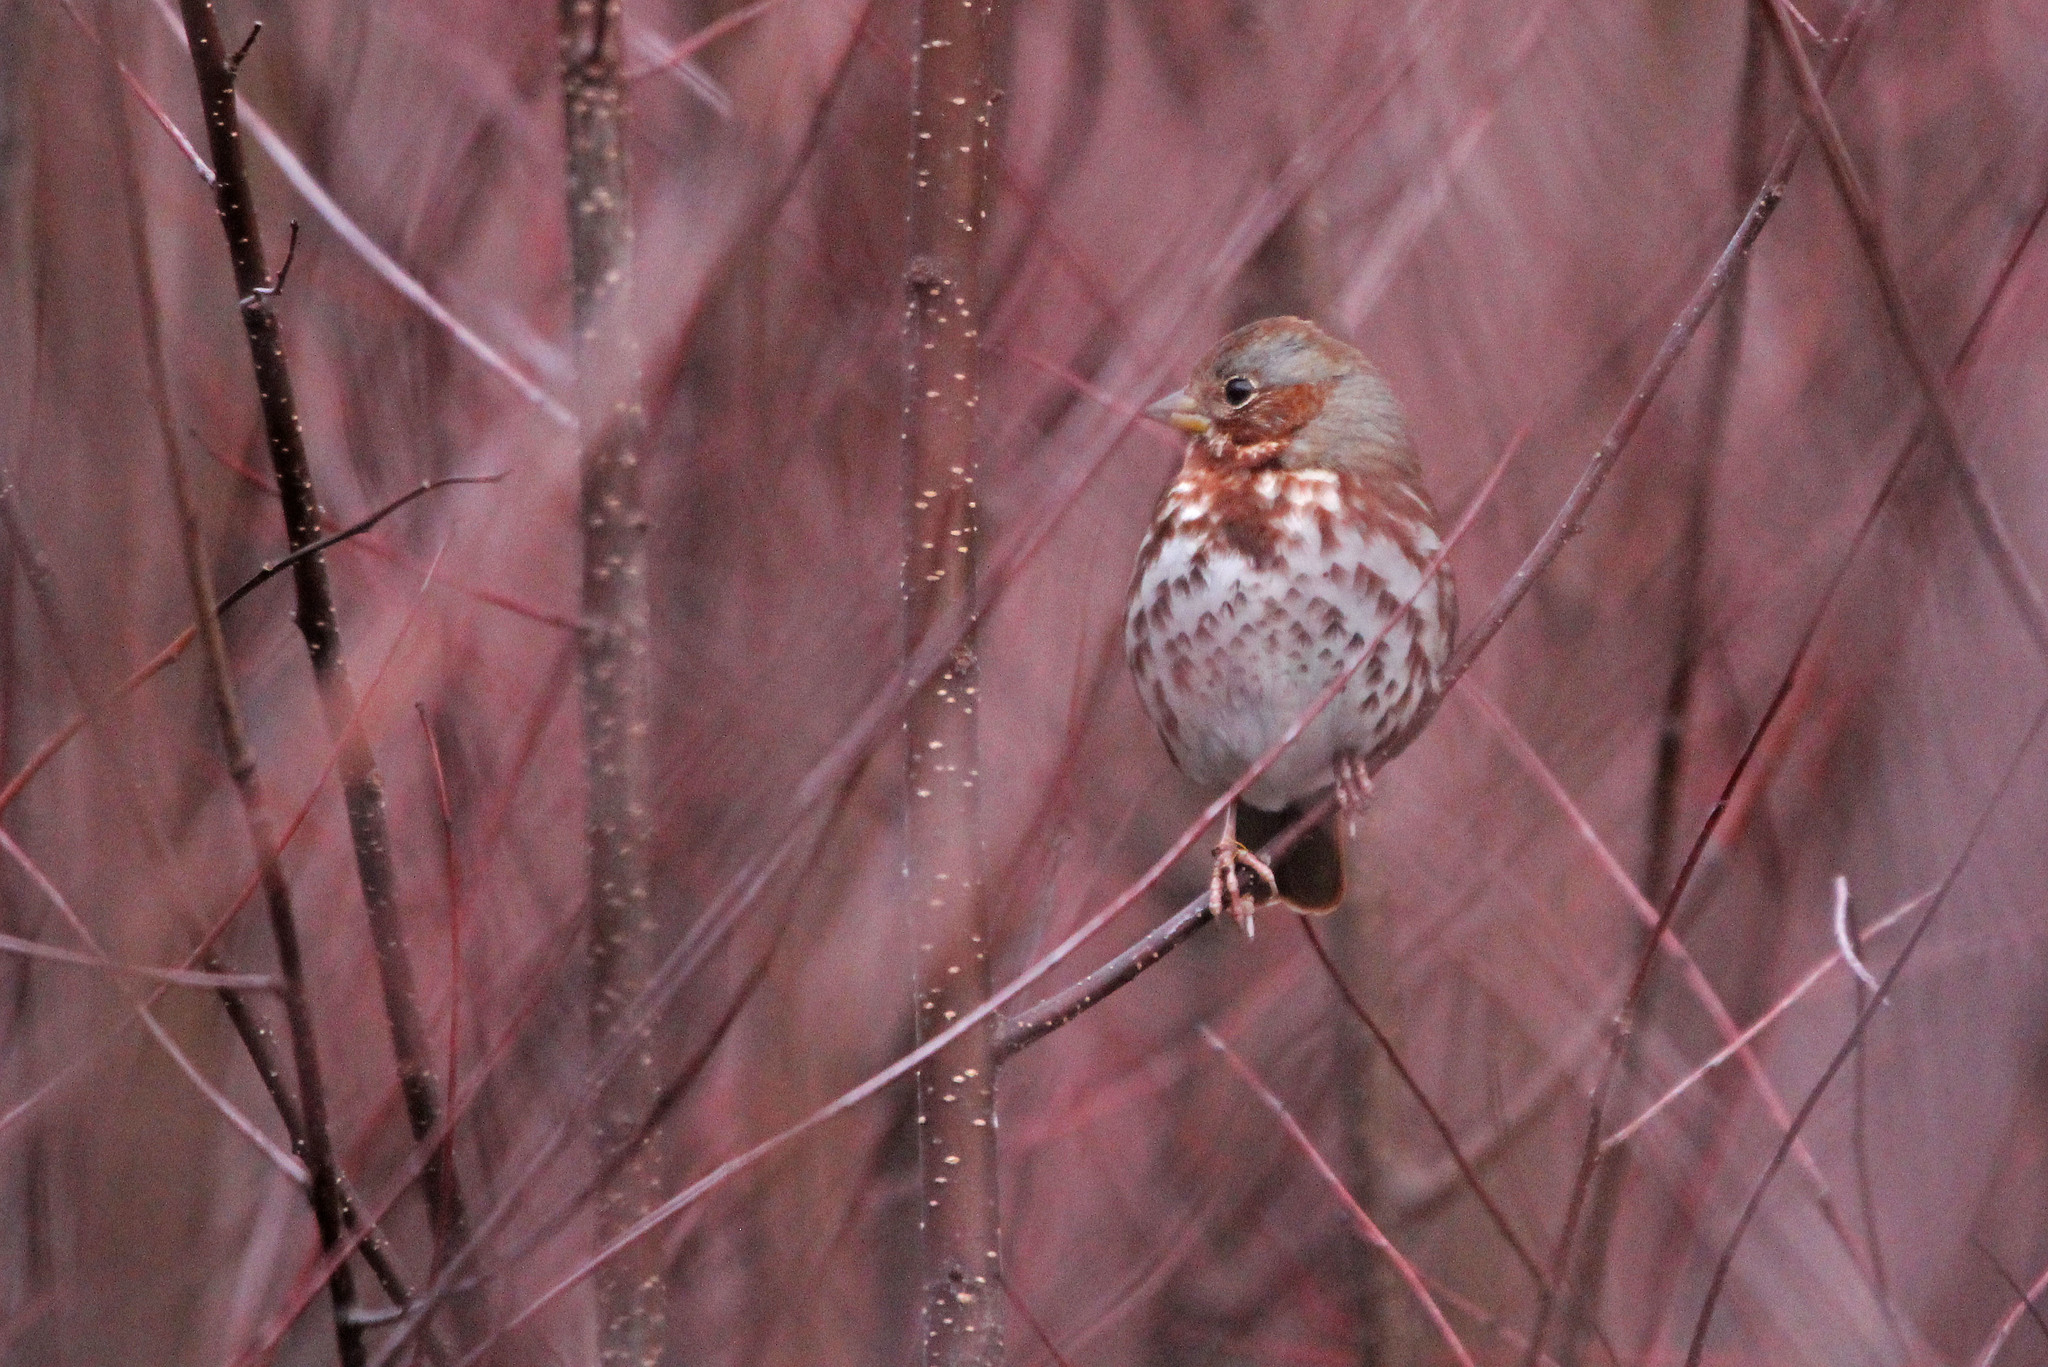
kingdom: Animalia
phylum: Chordata
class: Aves
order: Passeriformes
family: Passerellidae
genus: Passerella
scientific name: Passerella iliaca
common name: Fox sparrow
